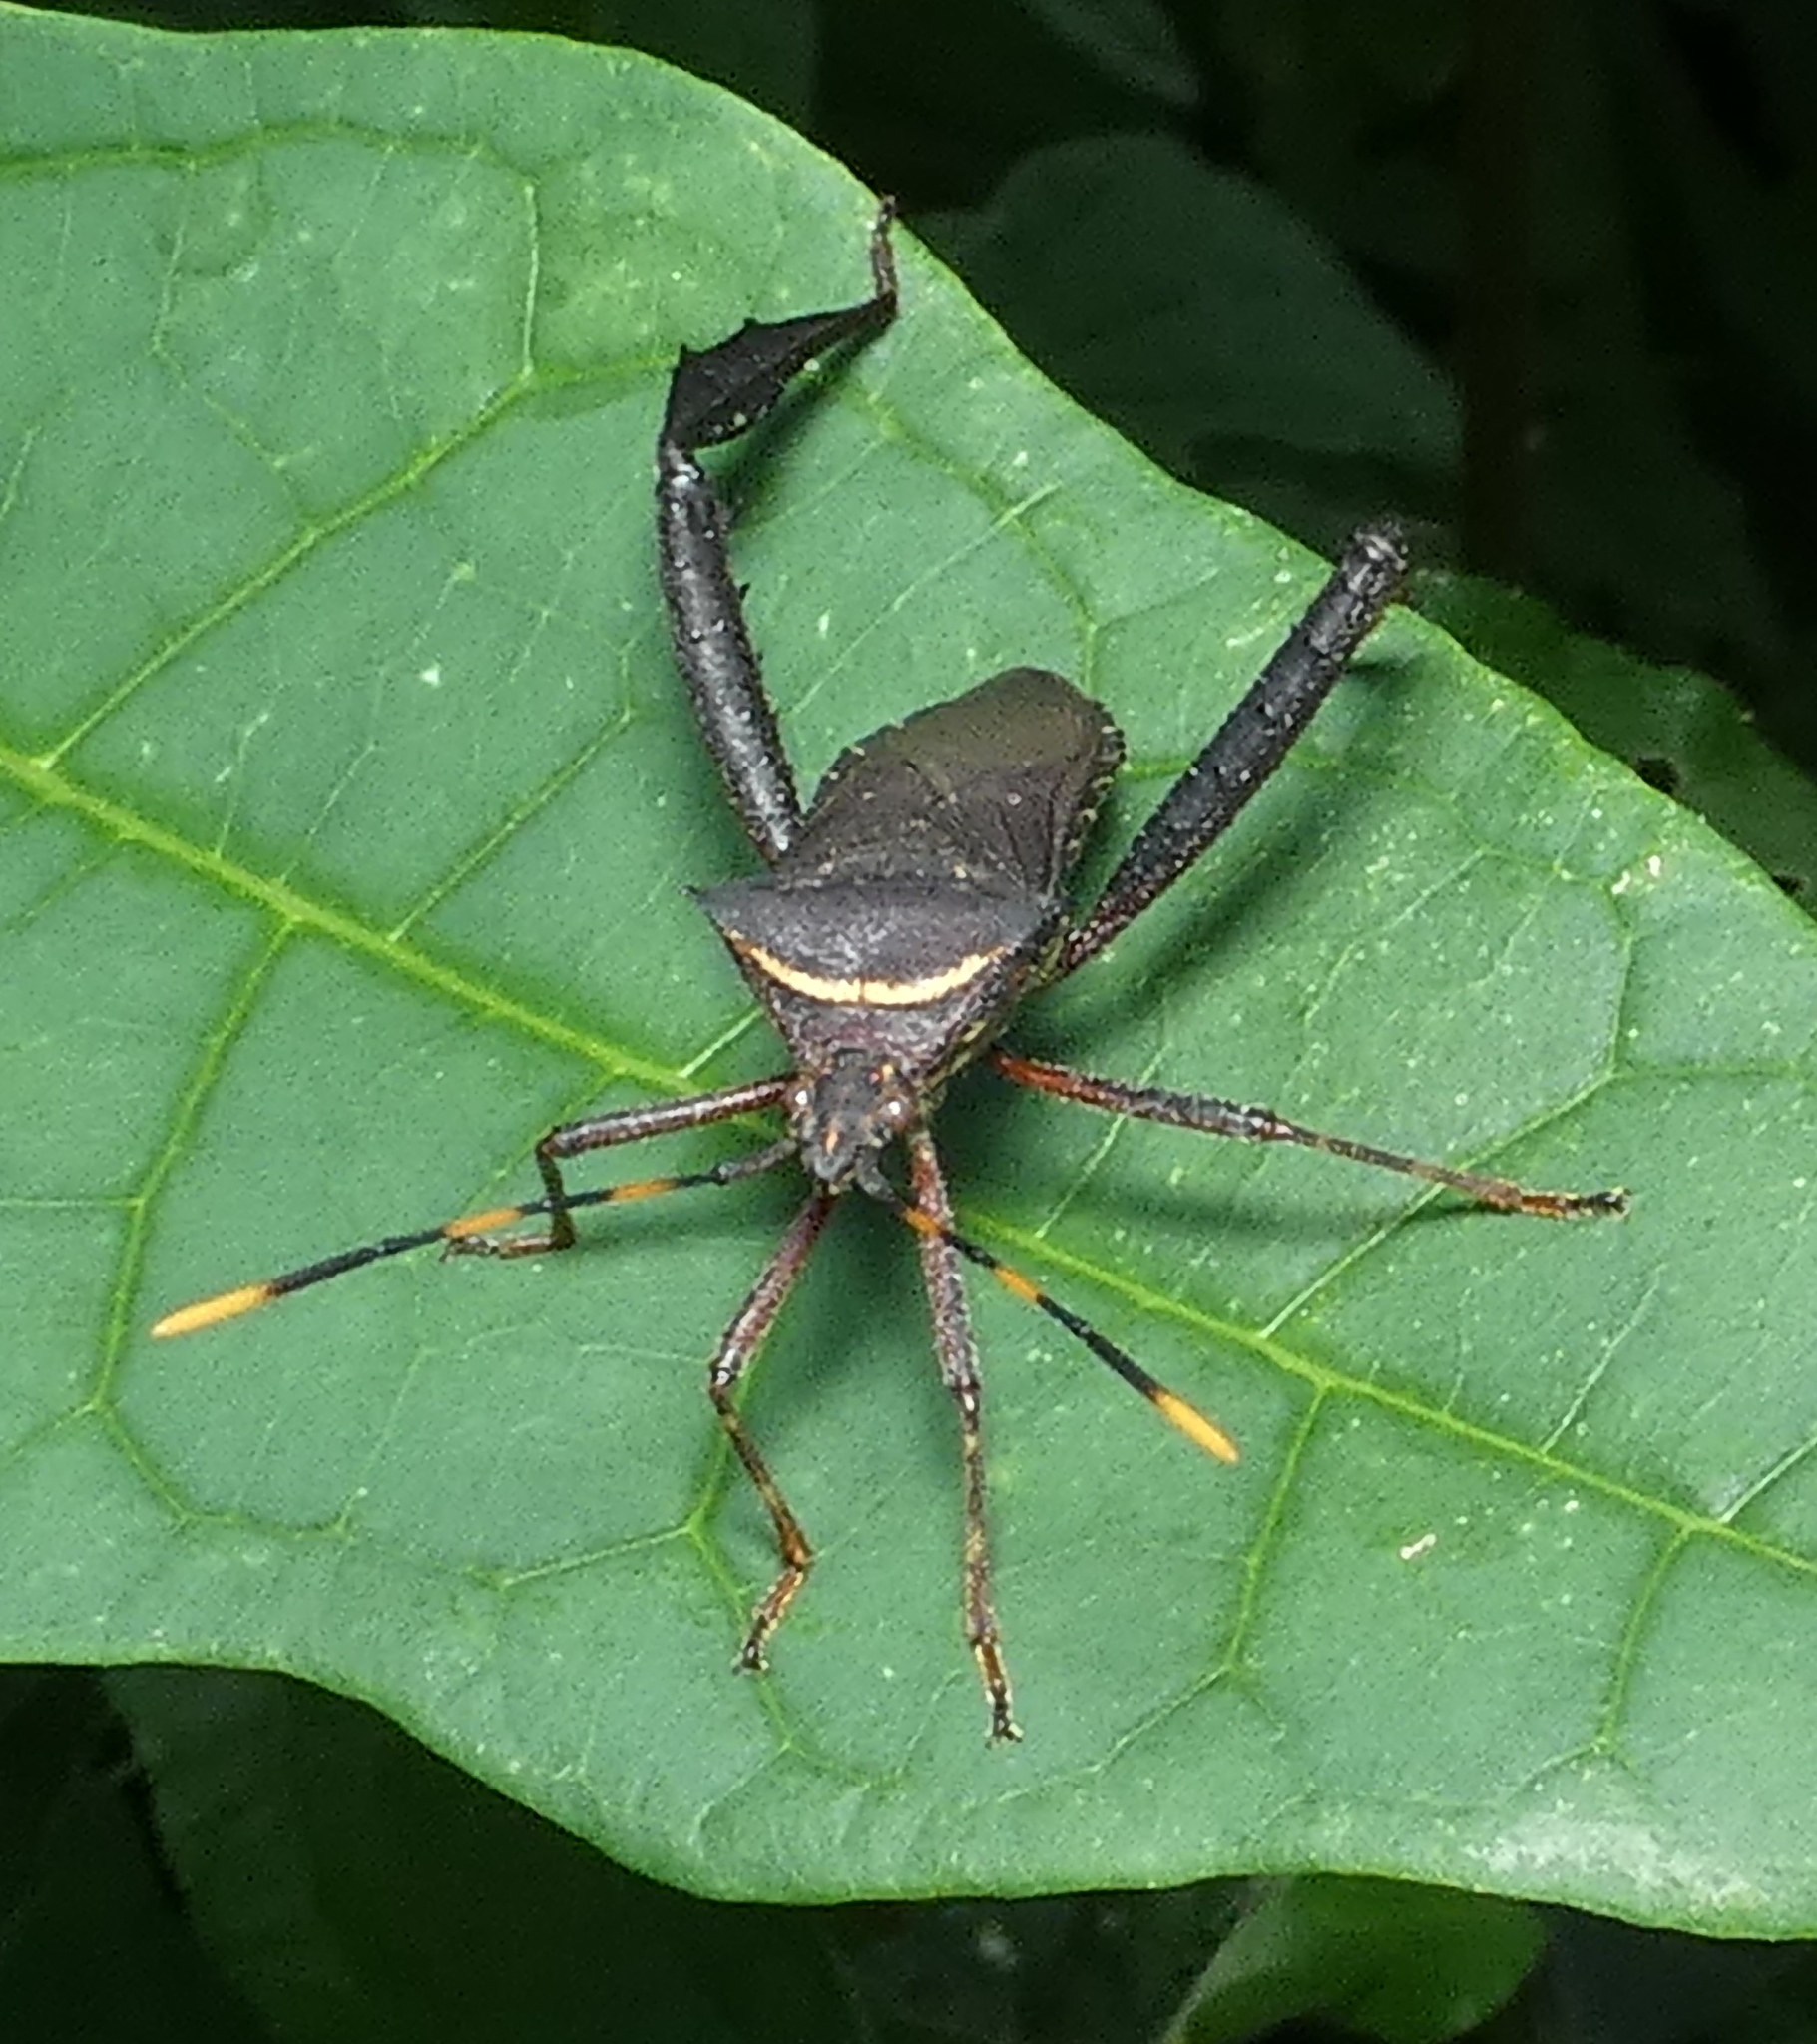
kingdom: Animalia
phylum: Arthropoda
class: Insecta
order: Hemiptera
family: Coreidae
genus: Leptoglossus
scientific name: Leptoglossus gonagra
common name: Citron bug
